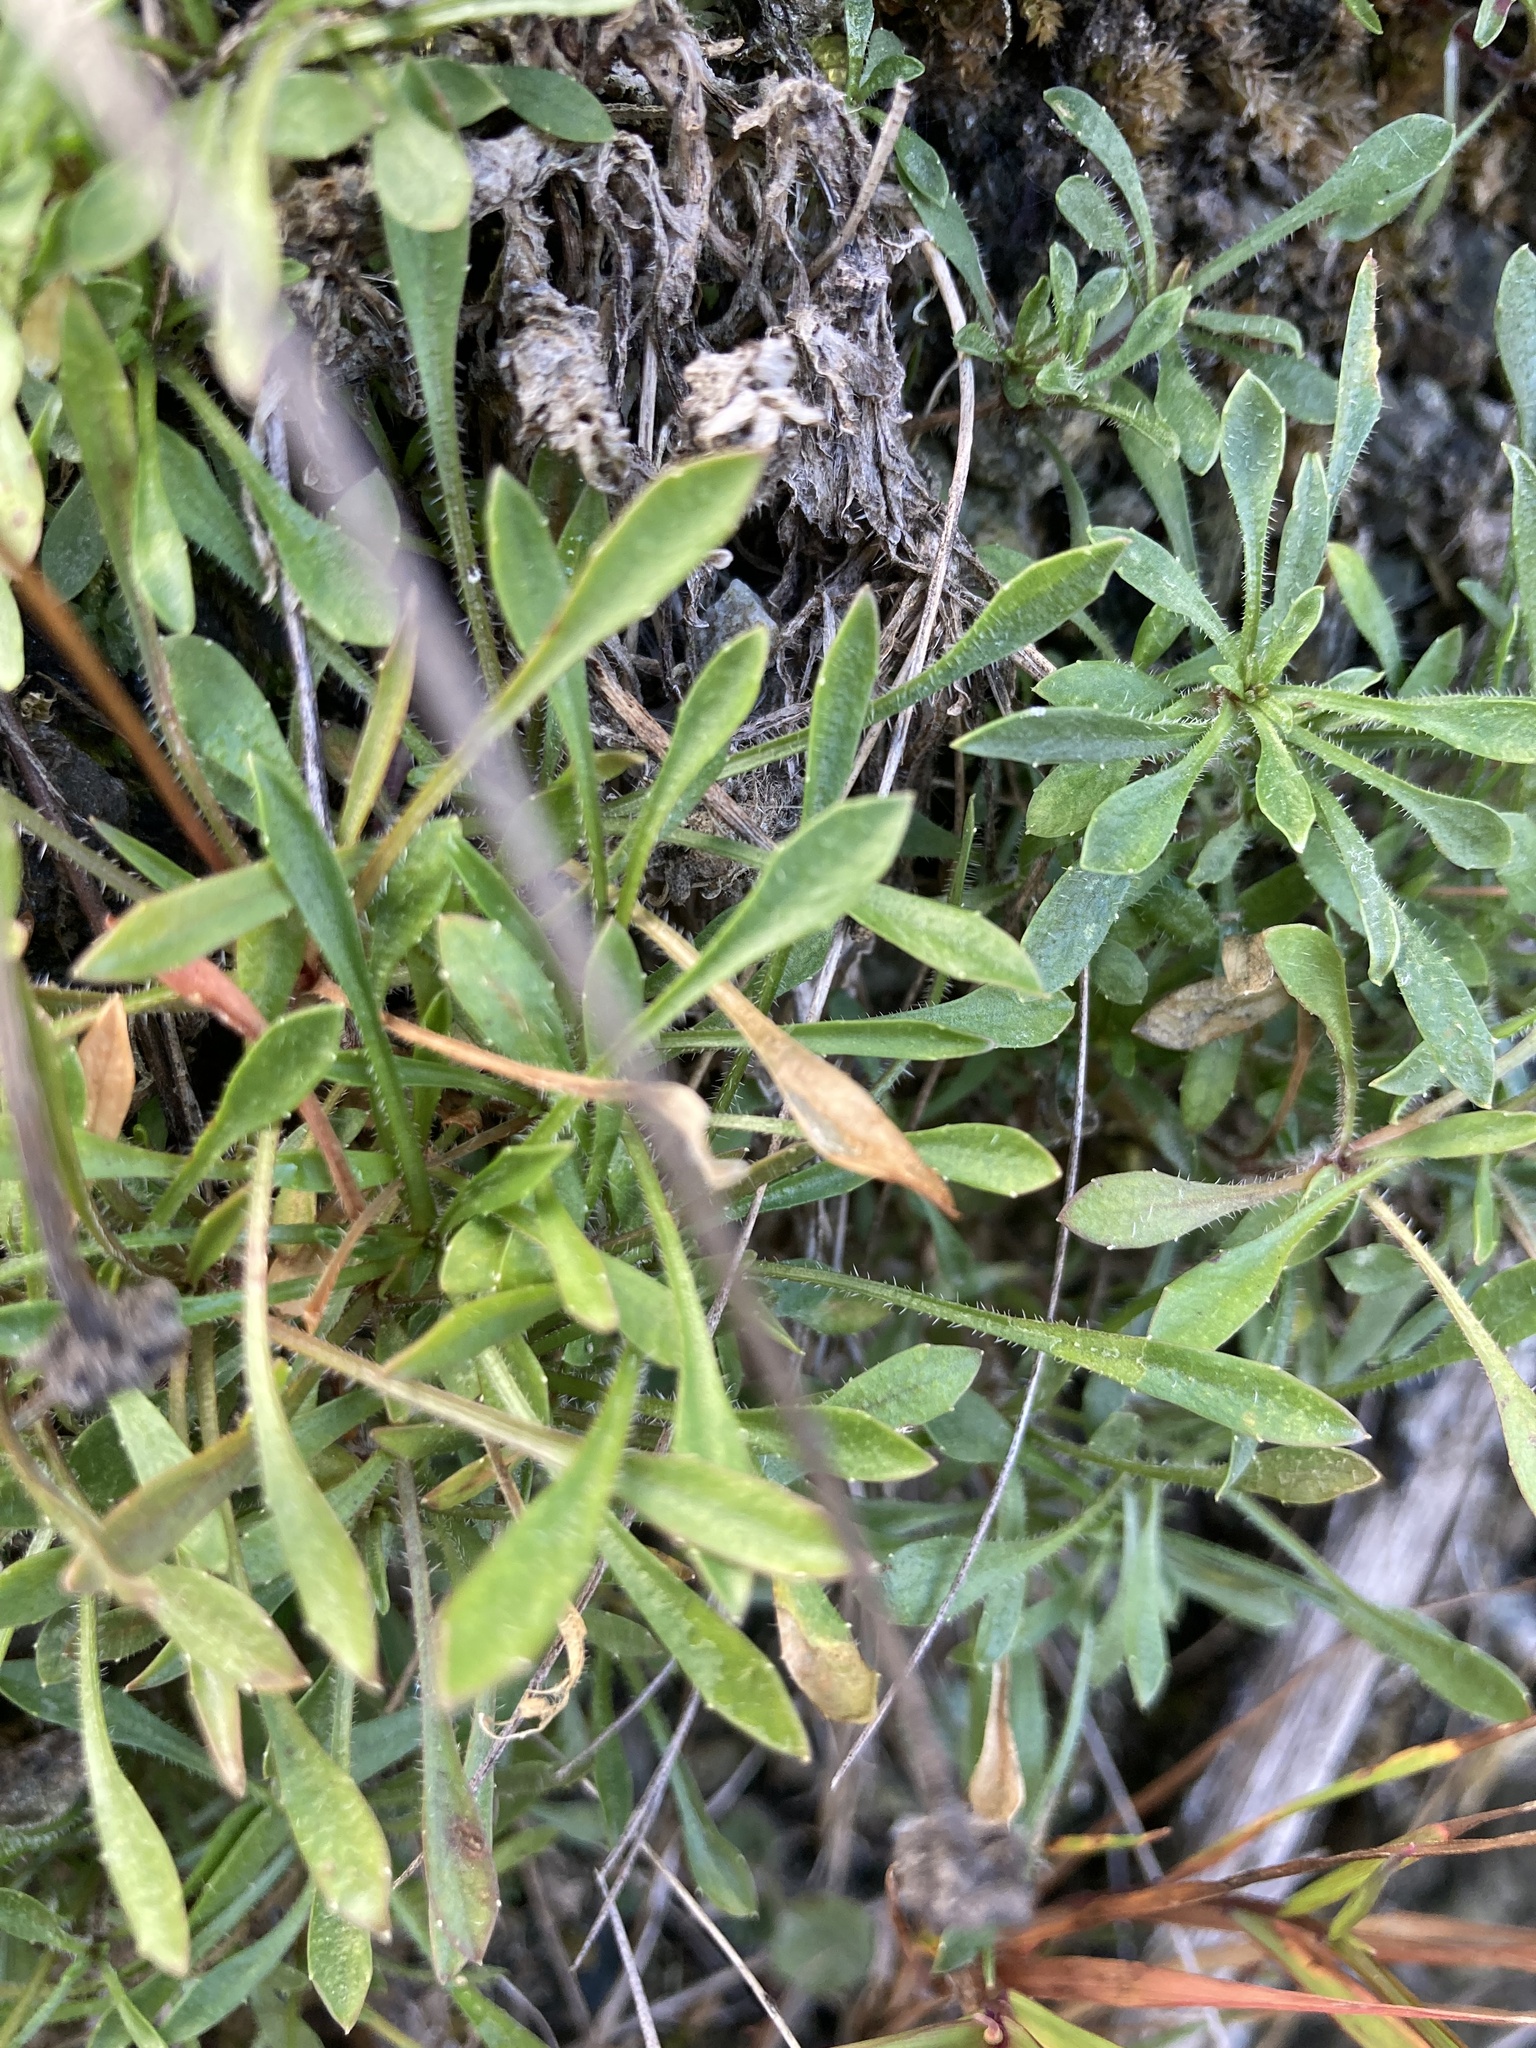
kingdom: Plantae
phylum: Tracheophyta
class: Magnoliopsida
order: Asterales
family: Campanulaceae
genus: Wahlenbergia
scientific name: Wahlenbergia albomarginata
